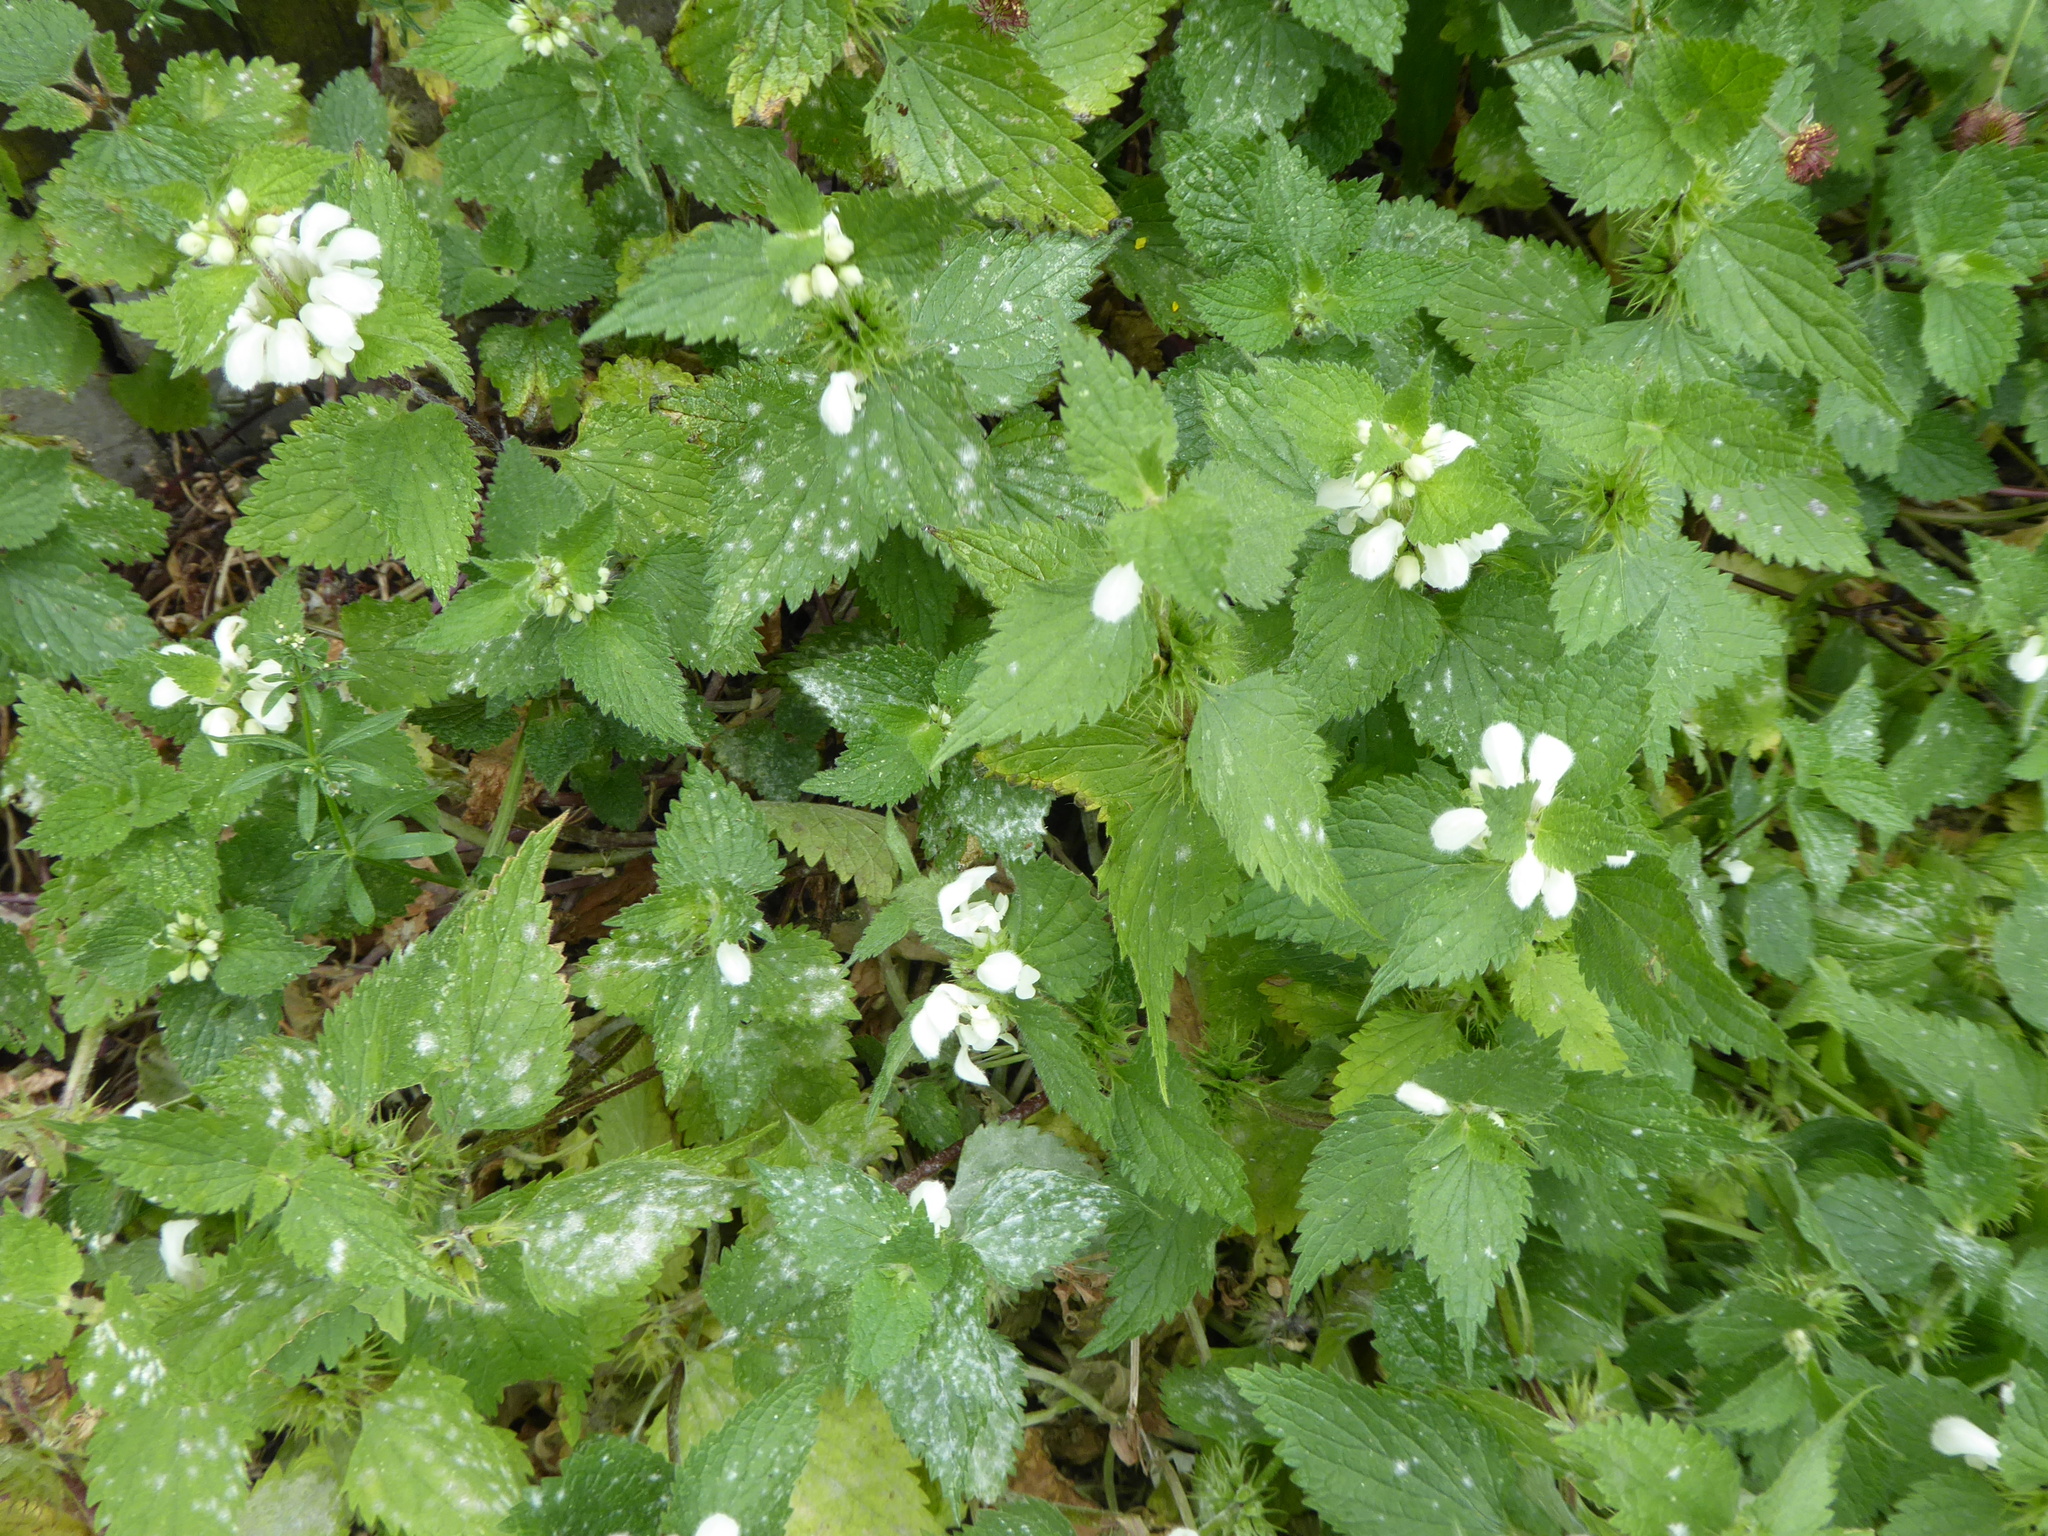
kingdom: Fungi
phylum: Ascomycota
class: Leotiomycetes
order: Helotiales
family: Erysiphaceae
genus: Neoerysiphe
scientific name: Neoerysiphe galeopsidis
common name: Mint mildew
